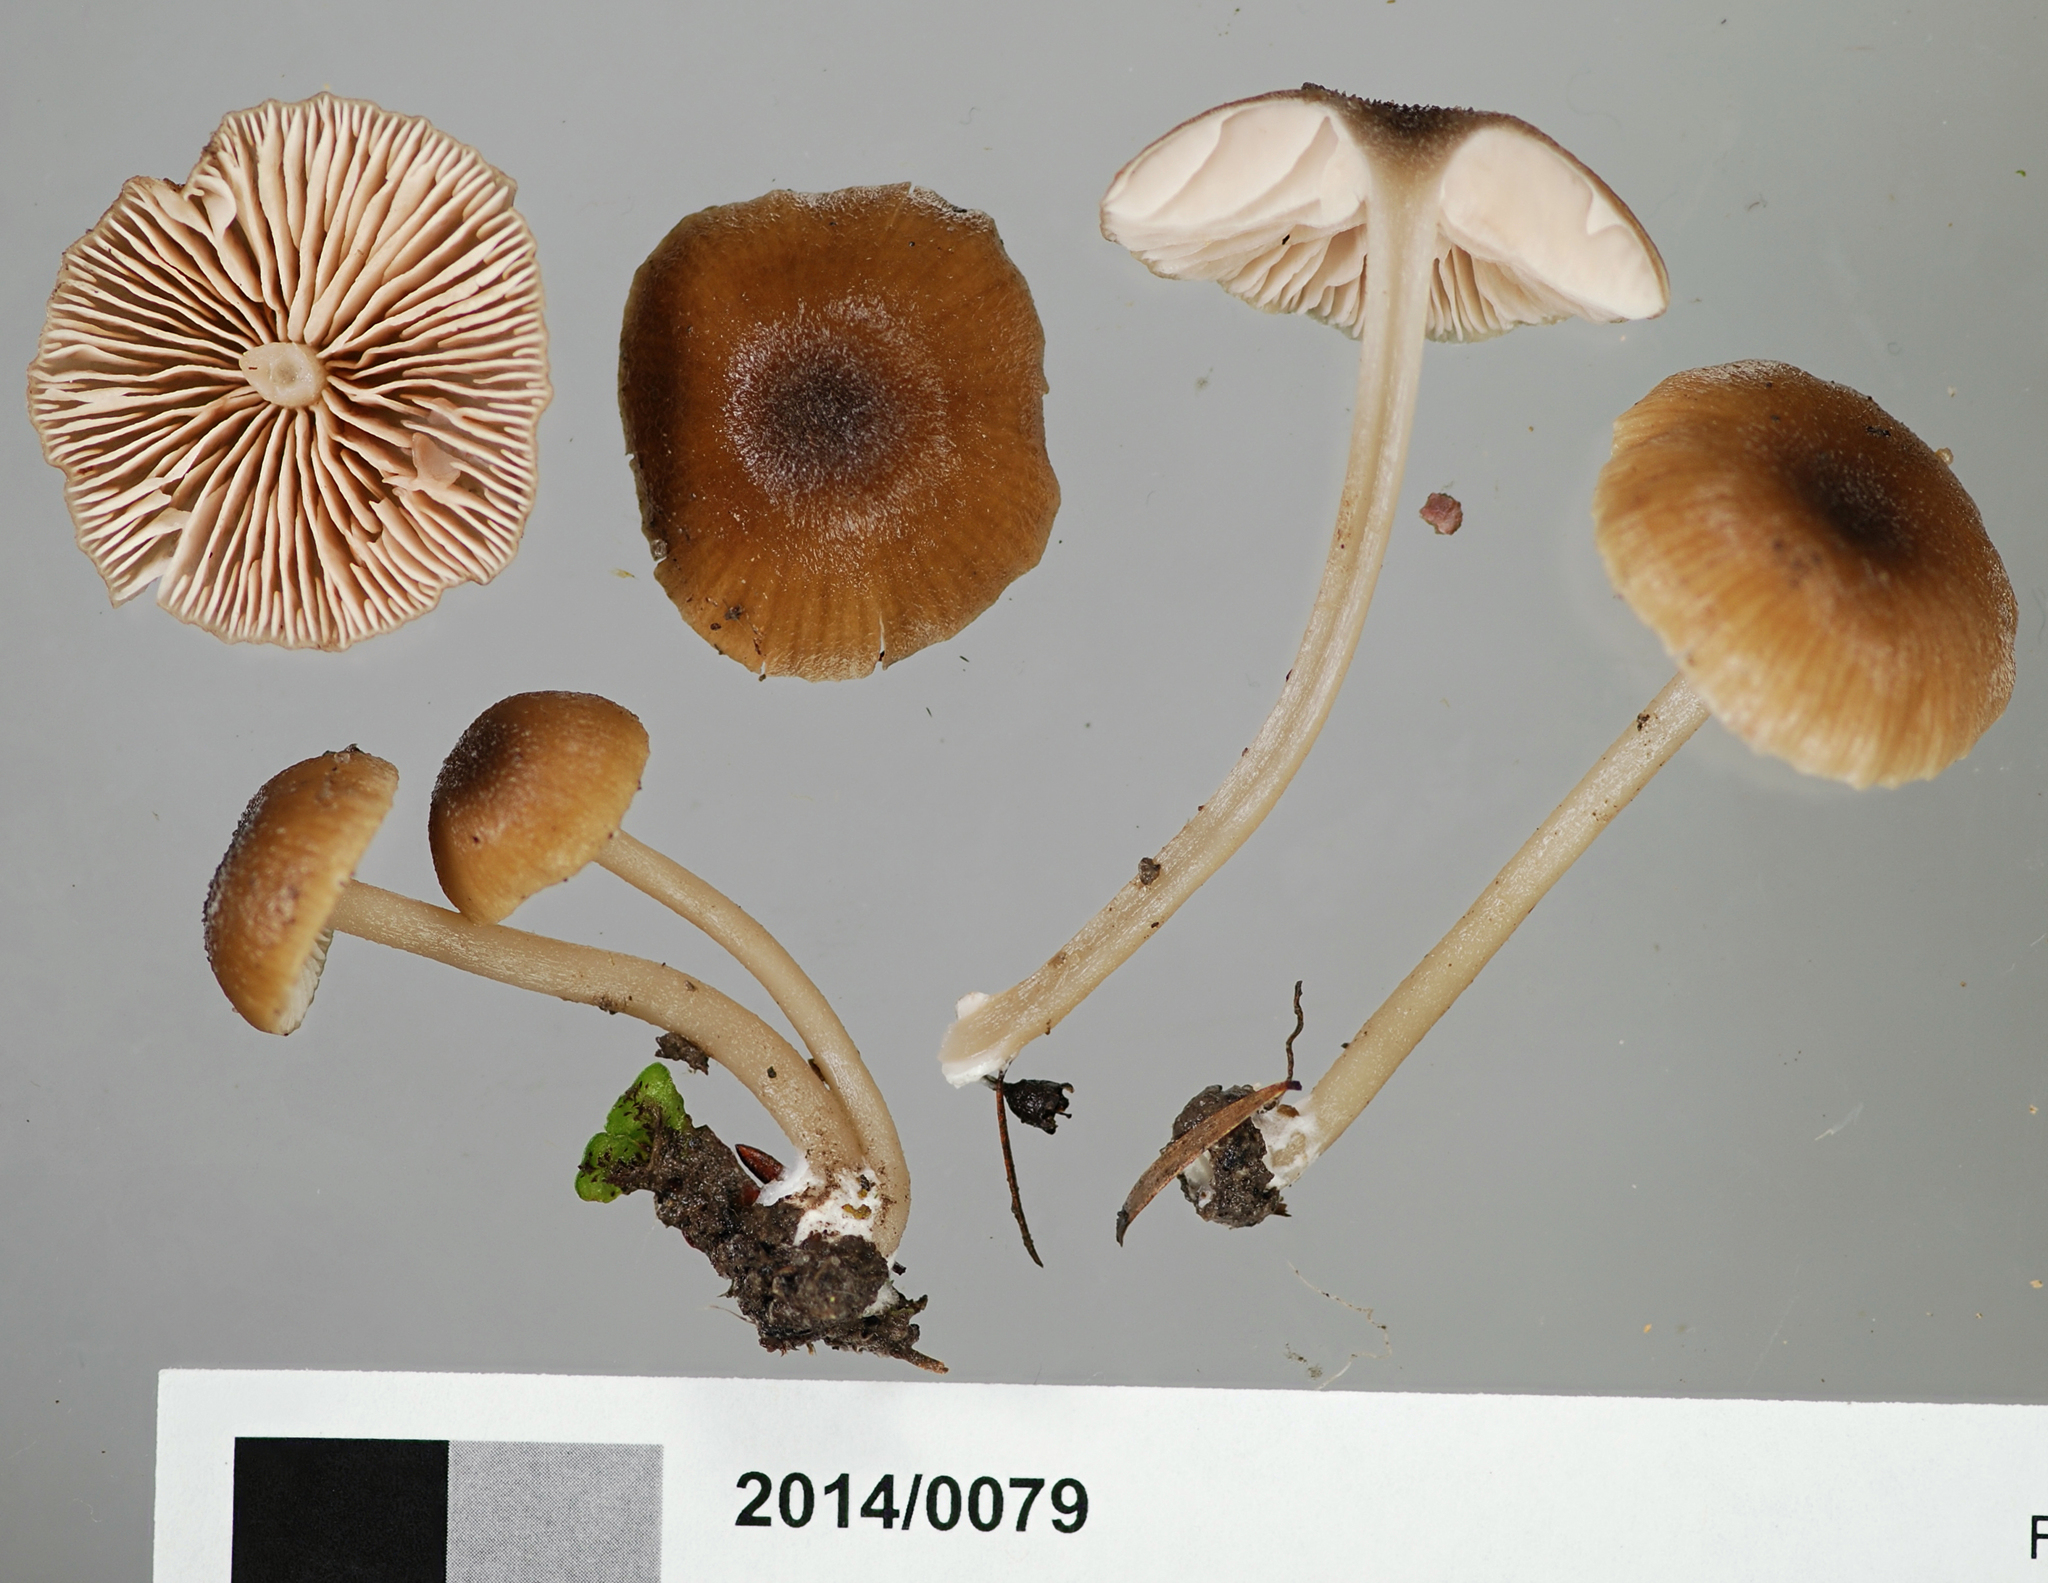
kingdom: Fungi
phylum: Basidiomycota
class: Agaricomycetes
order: Agaricales
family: Entolomataceae
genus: Entoloma
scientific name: Entoloma persimile
